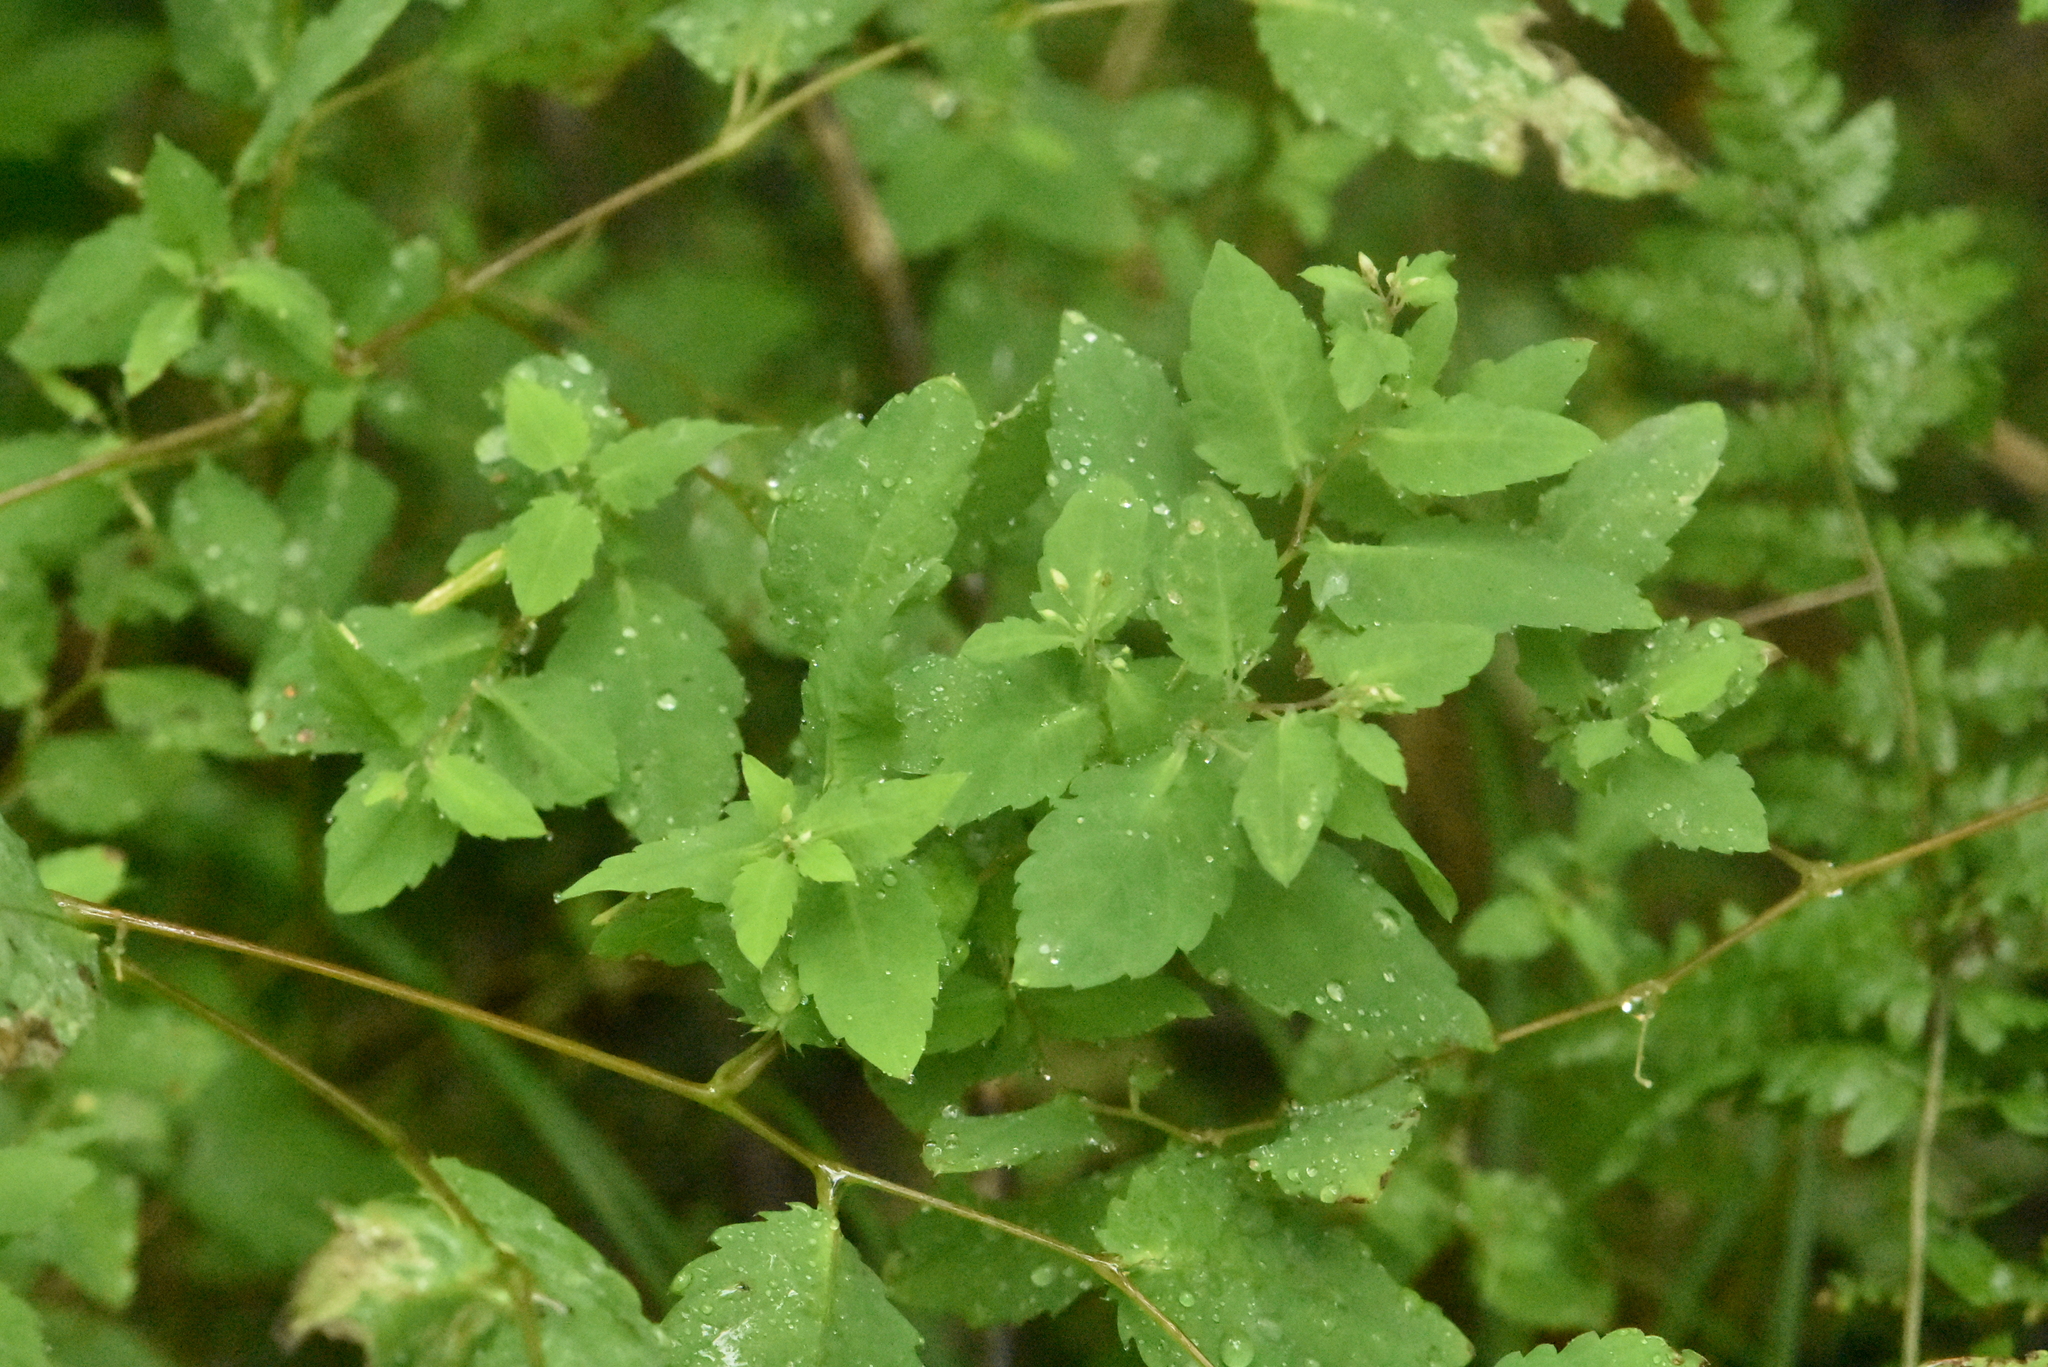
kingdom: Plantae
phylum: Tracheophyta
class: Magnoliopsida
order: Ericales
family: Balsaminaceae
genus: Impatiens
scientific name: Impatiens noli-tangere
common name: Touch-me-not balsam
